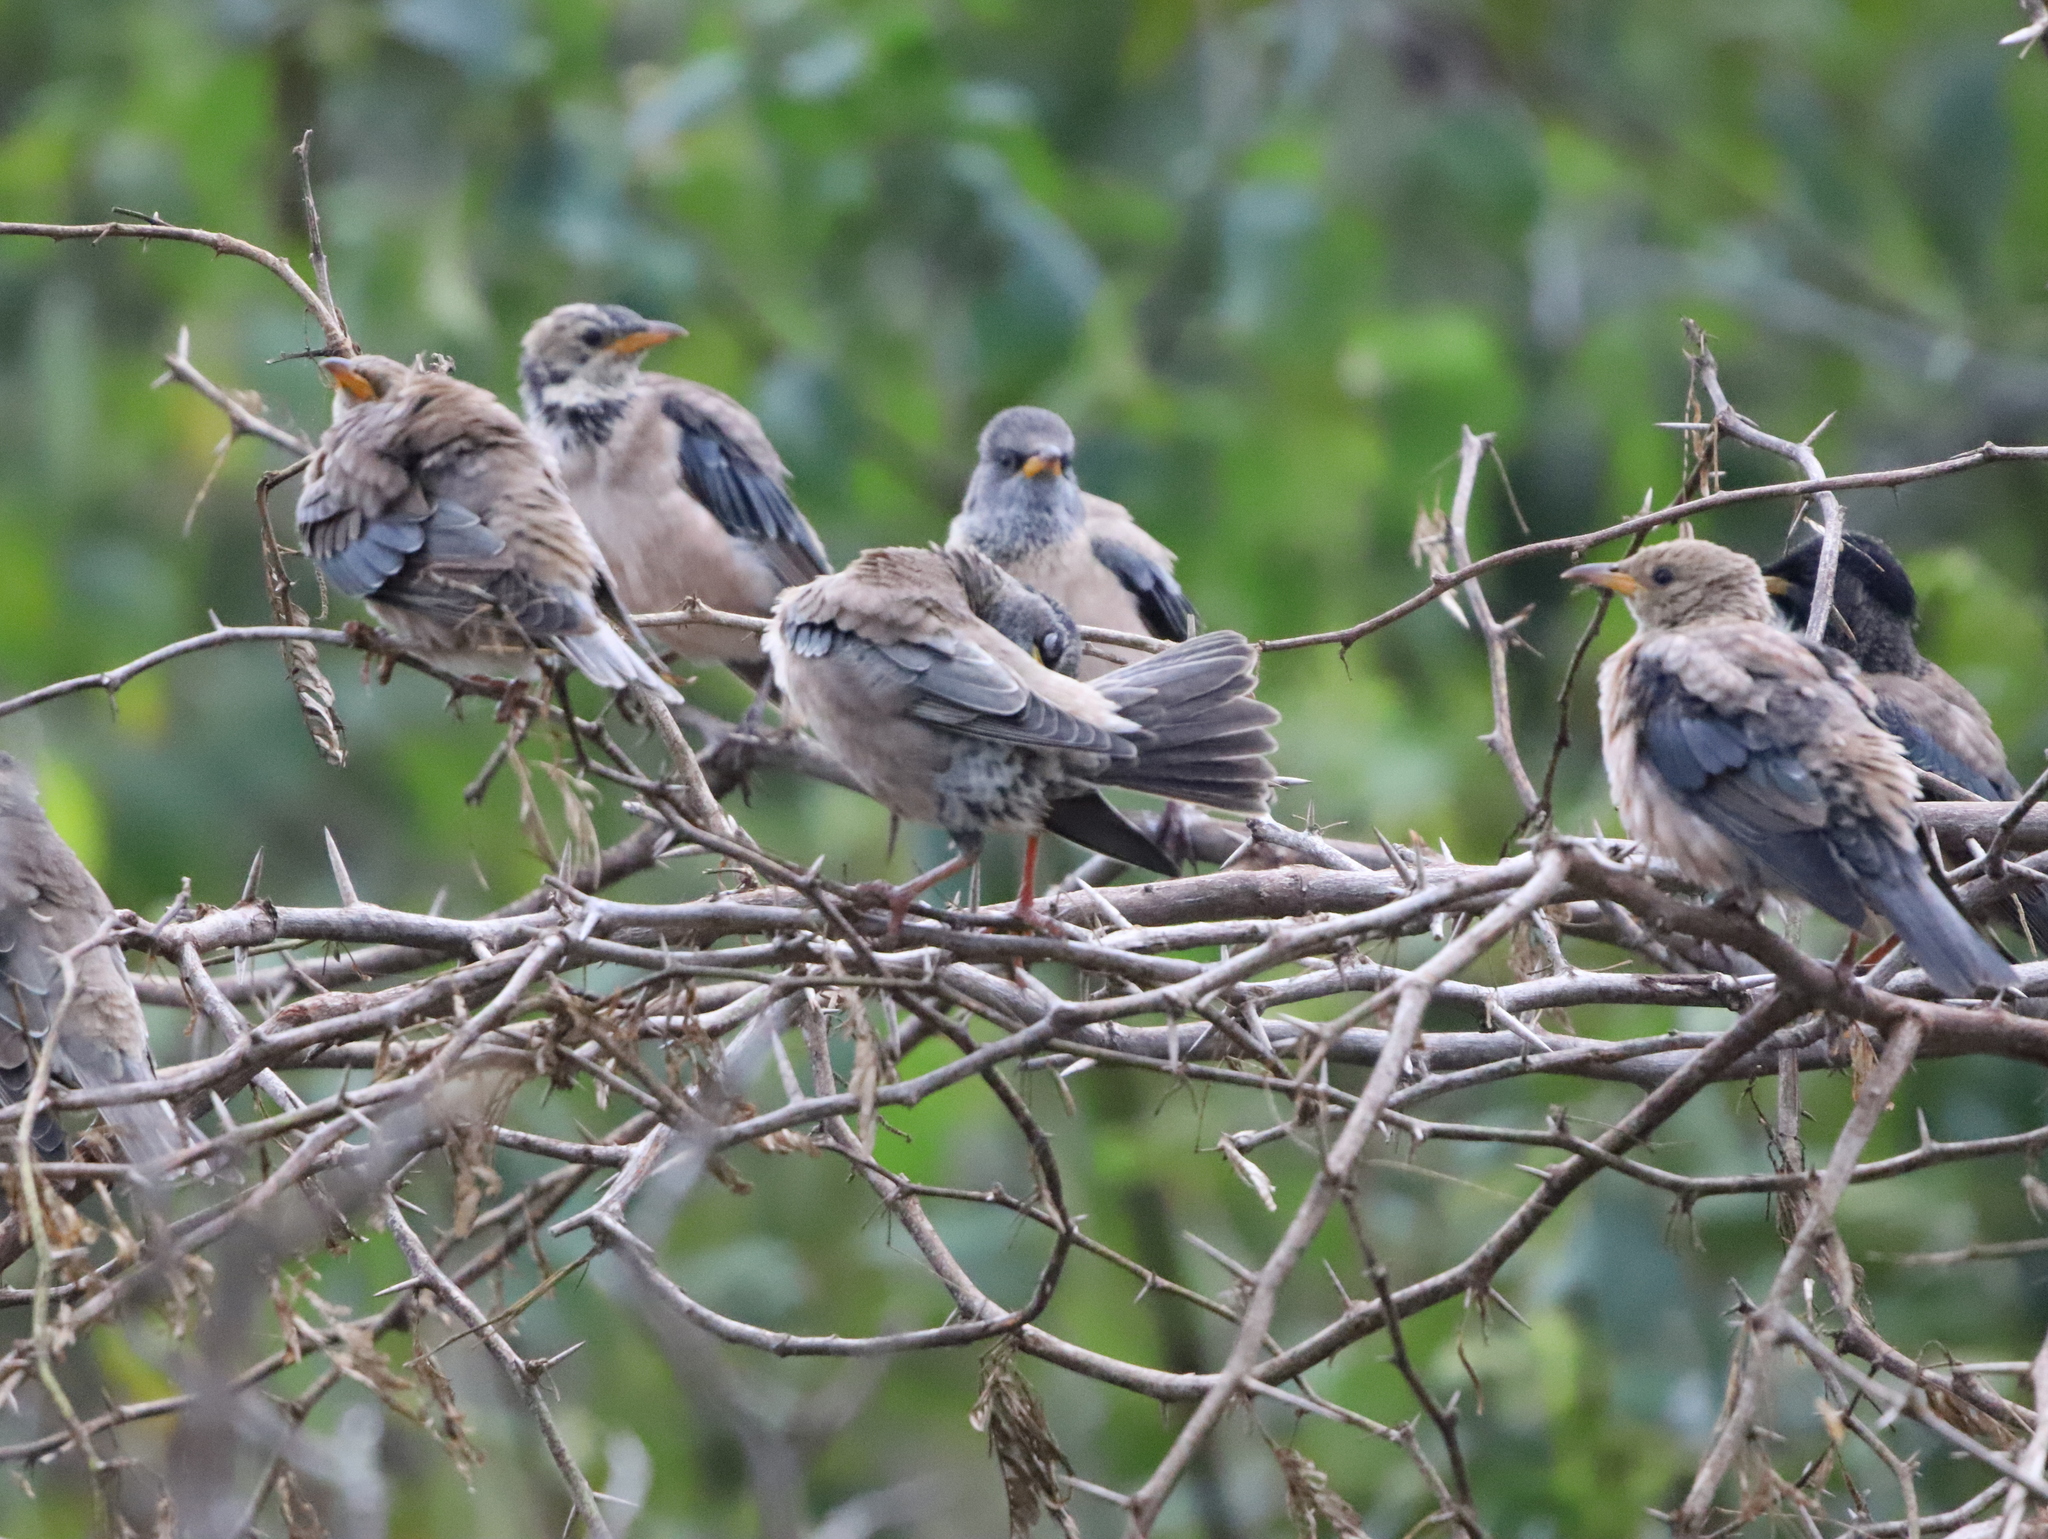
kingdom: Animalia
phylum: Chordata
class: Aves
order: Passeriformes
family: Sturnidae
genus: Pastor
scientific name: Pastor roseus
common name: Rosy starling
